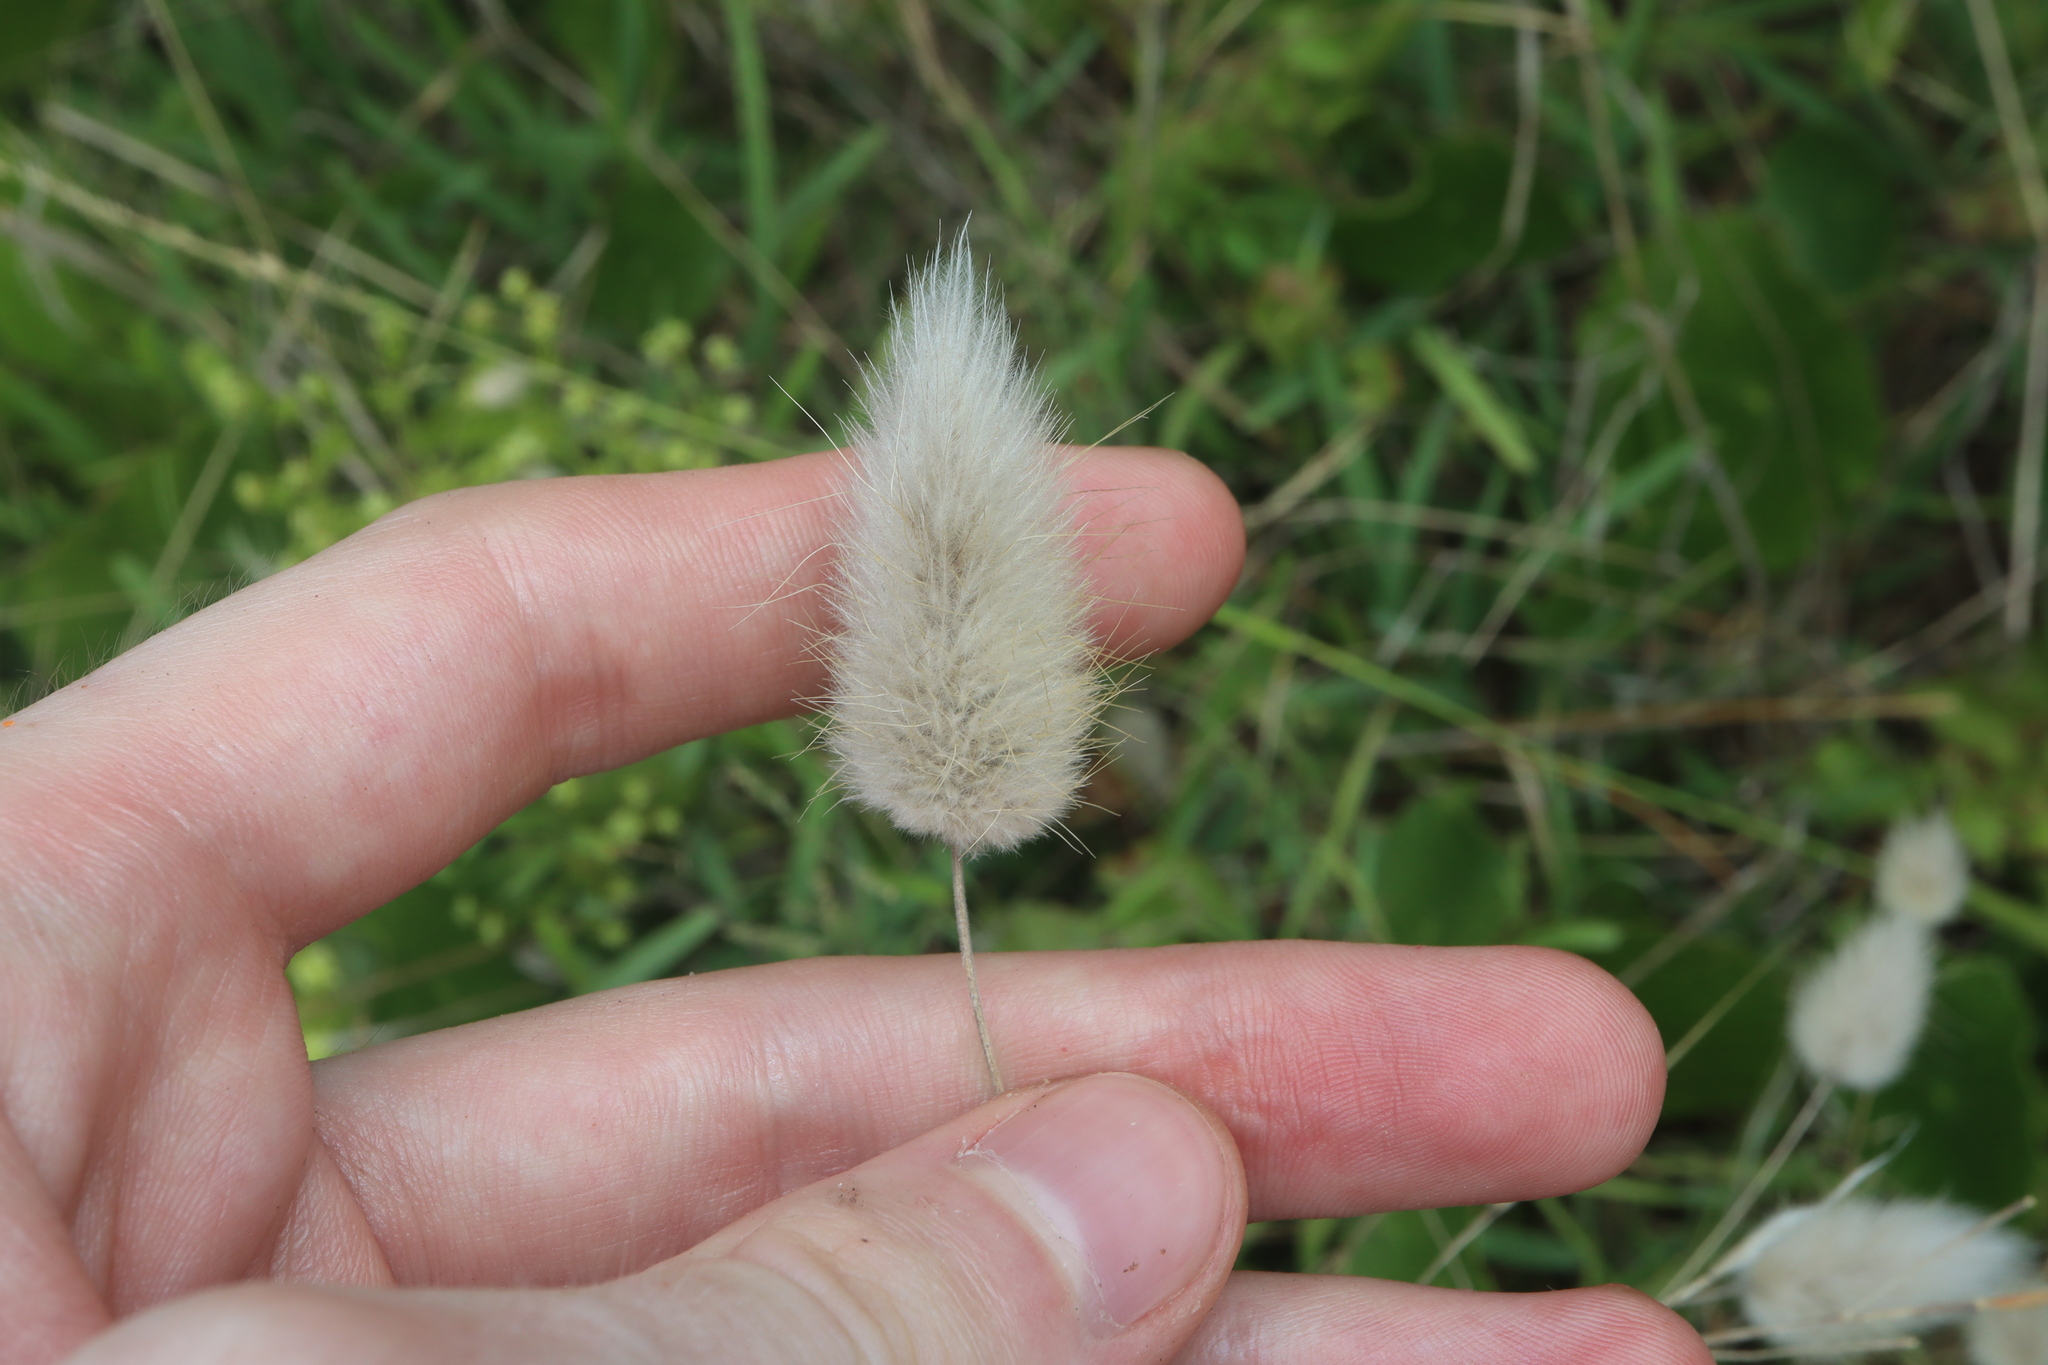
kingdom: Plantae
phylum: Tracheophyta
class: Liliopsida
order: Poales
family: Poaceae
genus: Lagurus
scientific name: Lagurus ovatus
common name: Hare's-tail
